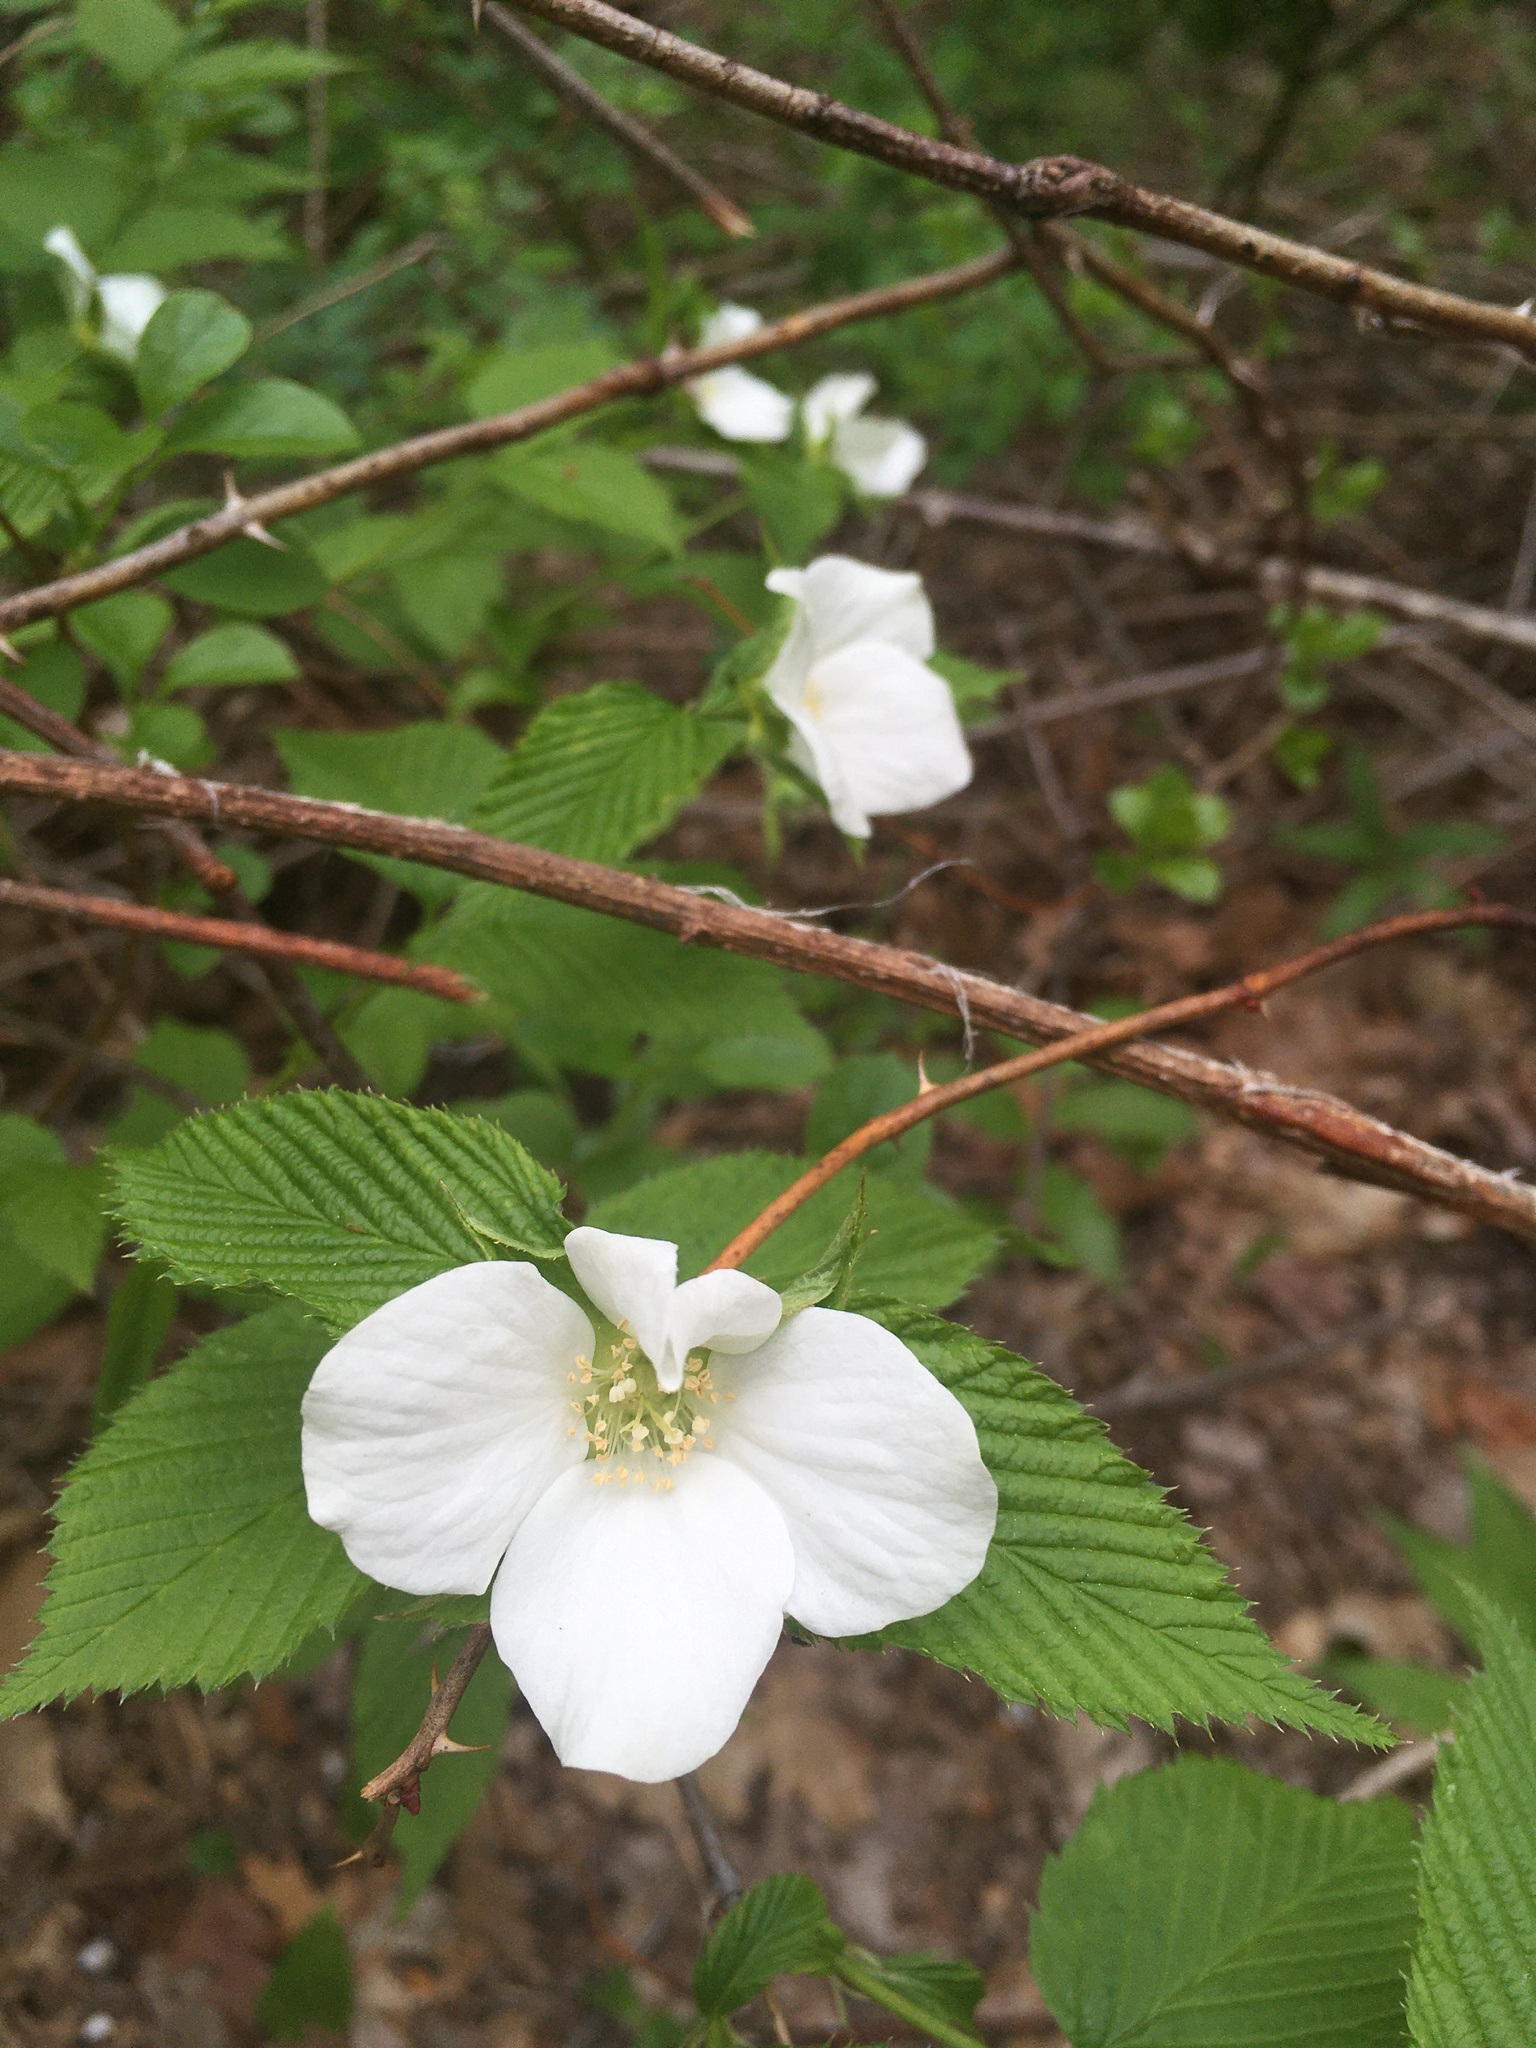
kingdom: Plantae
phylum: Tracheophyta
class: Magnoliopsida
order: Rosales
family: Rosaceae
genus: Rhodotypos
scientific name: Rhodotypos scandens
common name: Jetbead
